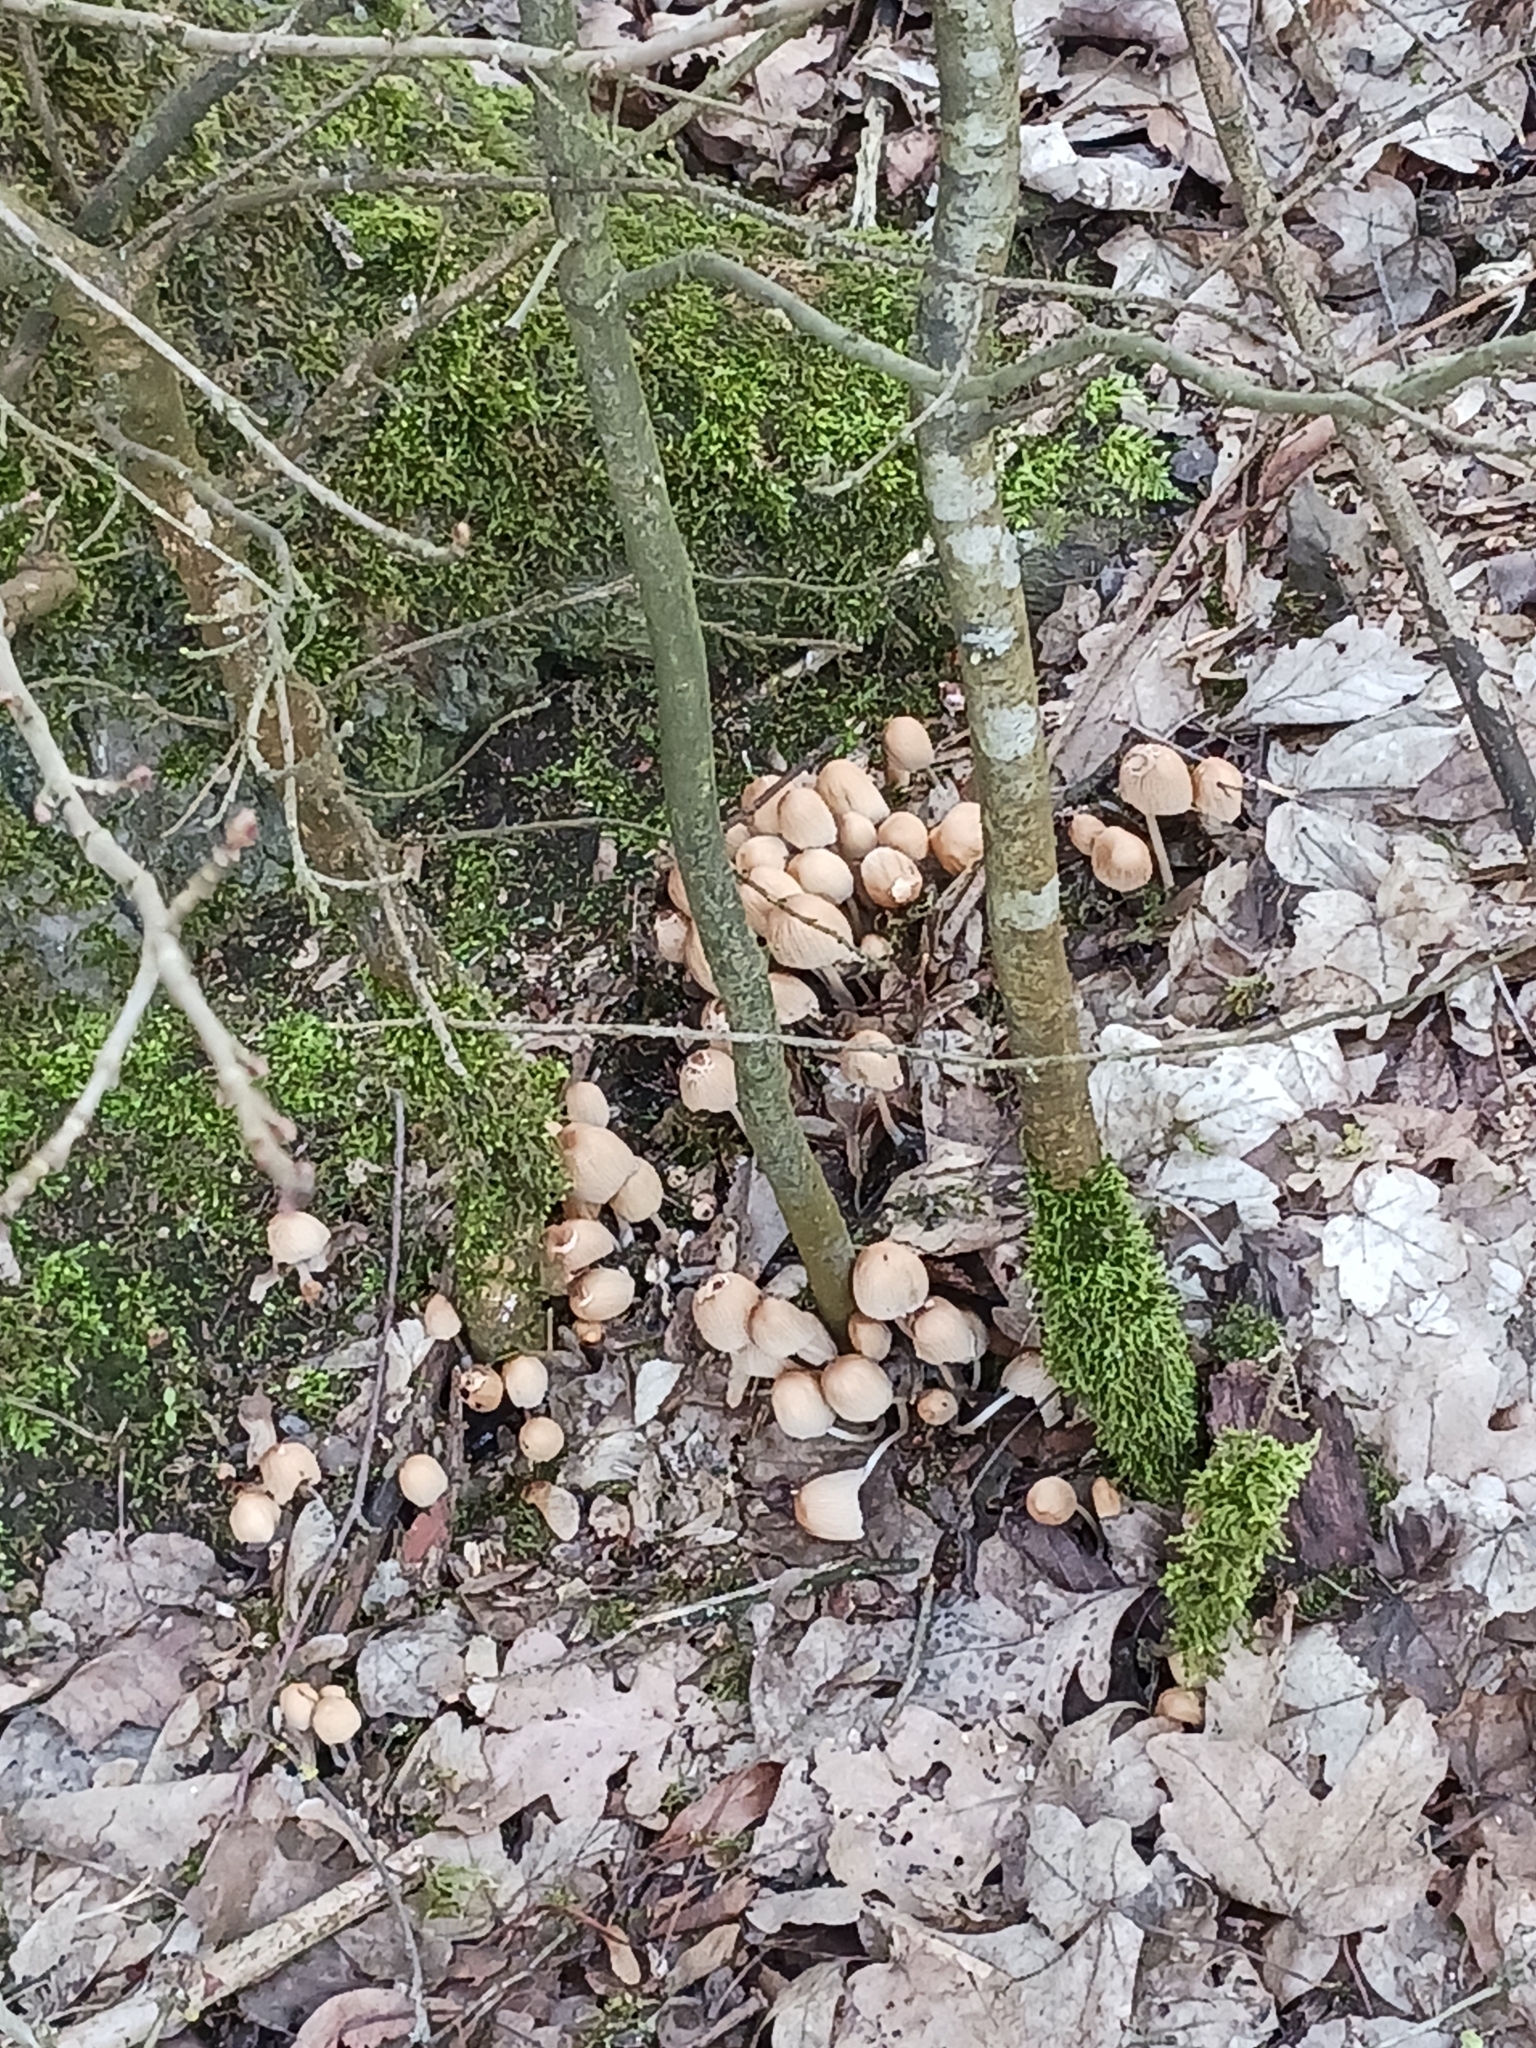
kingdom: Fungi
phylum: Basidiomycota
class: Agaricomycetes
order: Agaricales
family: Psathyrellaceae
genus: Coprinellus
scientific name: Coprinellus
